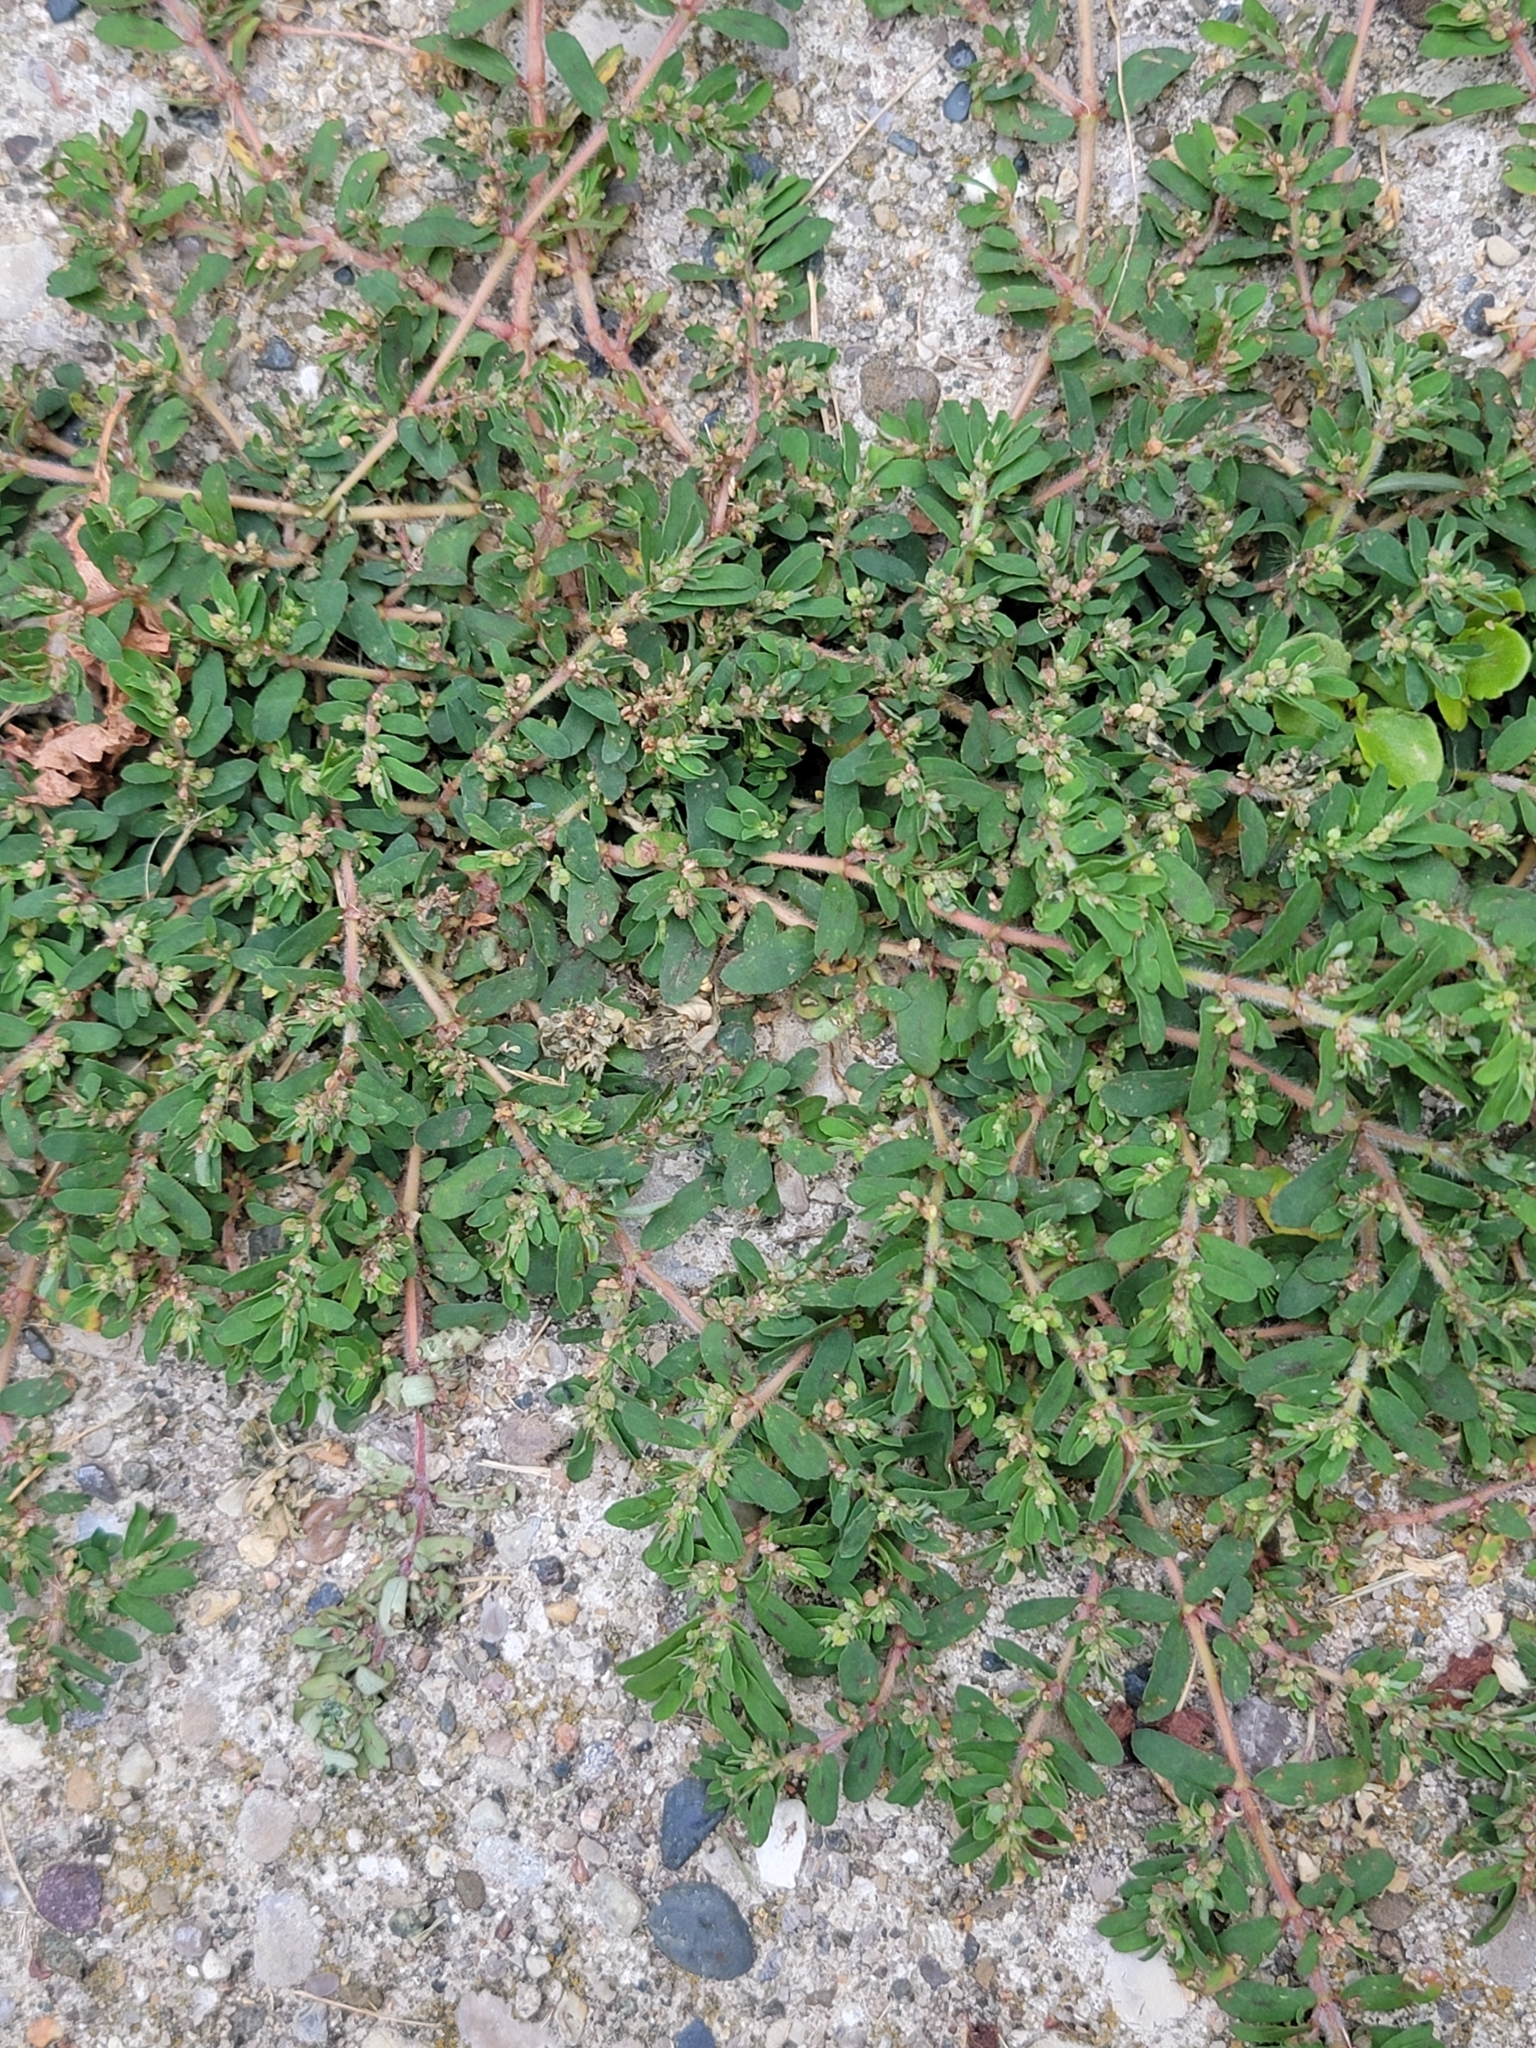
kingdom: Plantae
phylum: Tracheophyta
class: Magnoliopsida
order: Malpighiales
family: Euphorbiaceae
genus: Euphorbia
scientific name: Euphorbia maculata
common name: Spotted spurge
